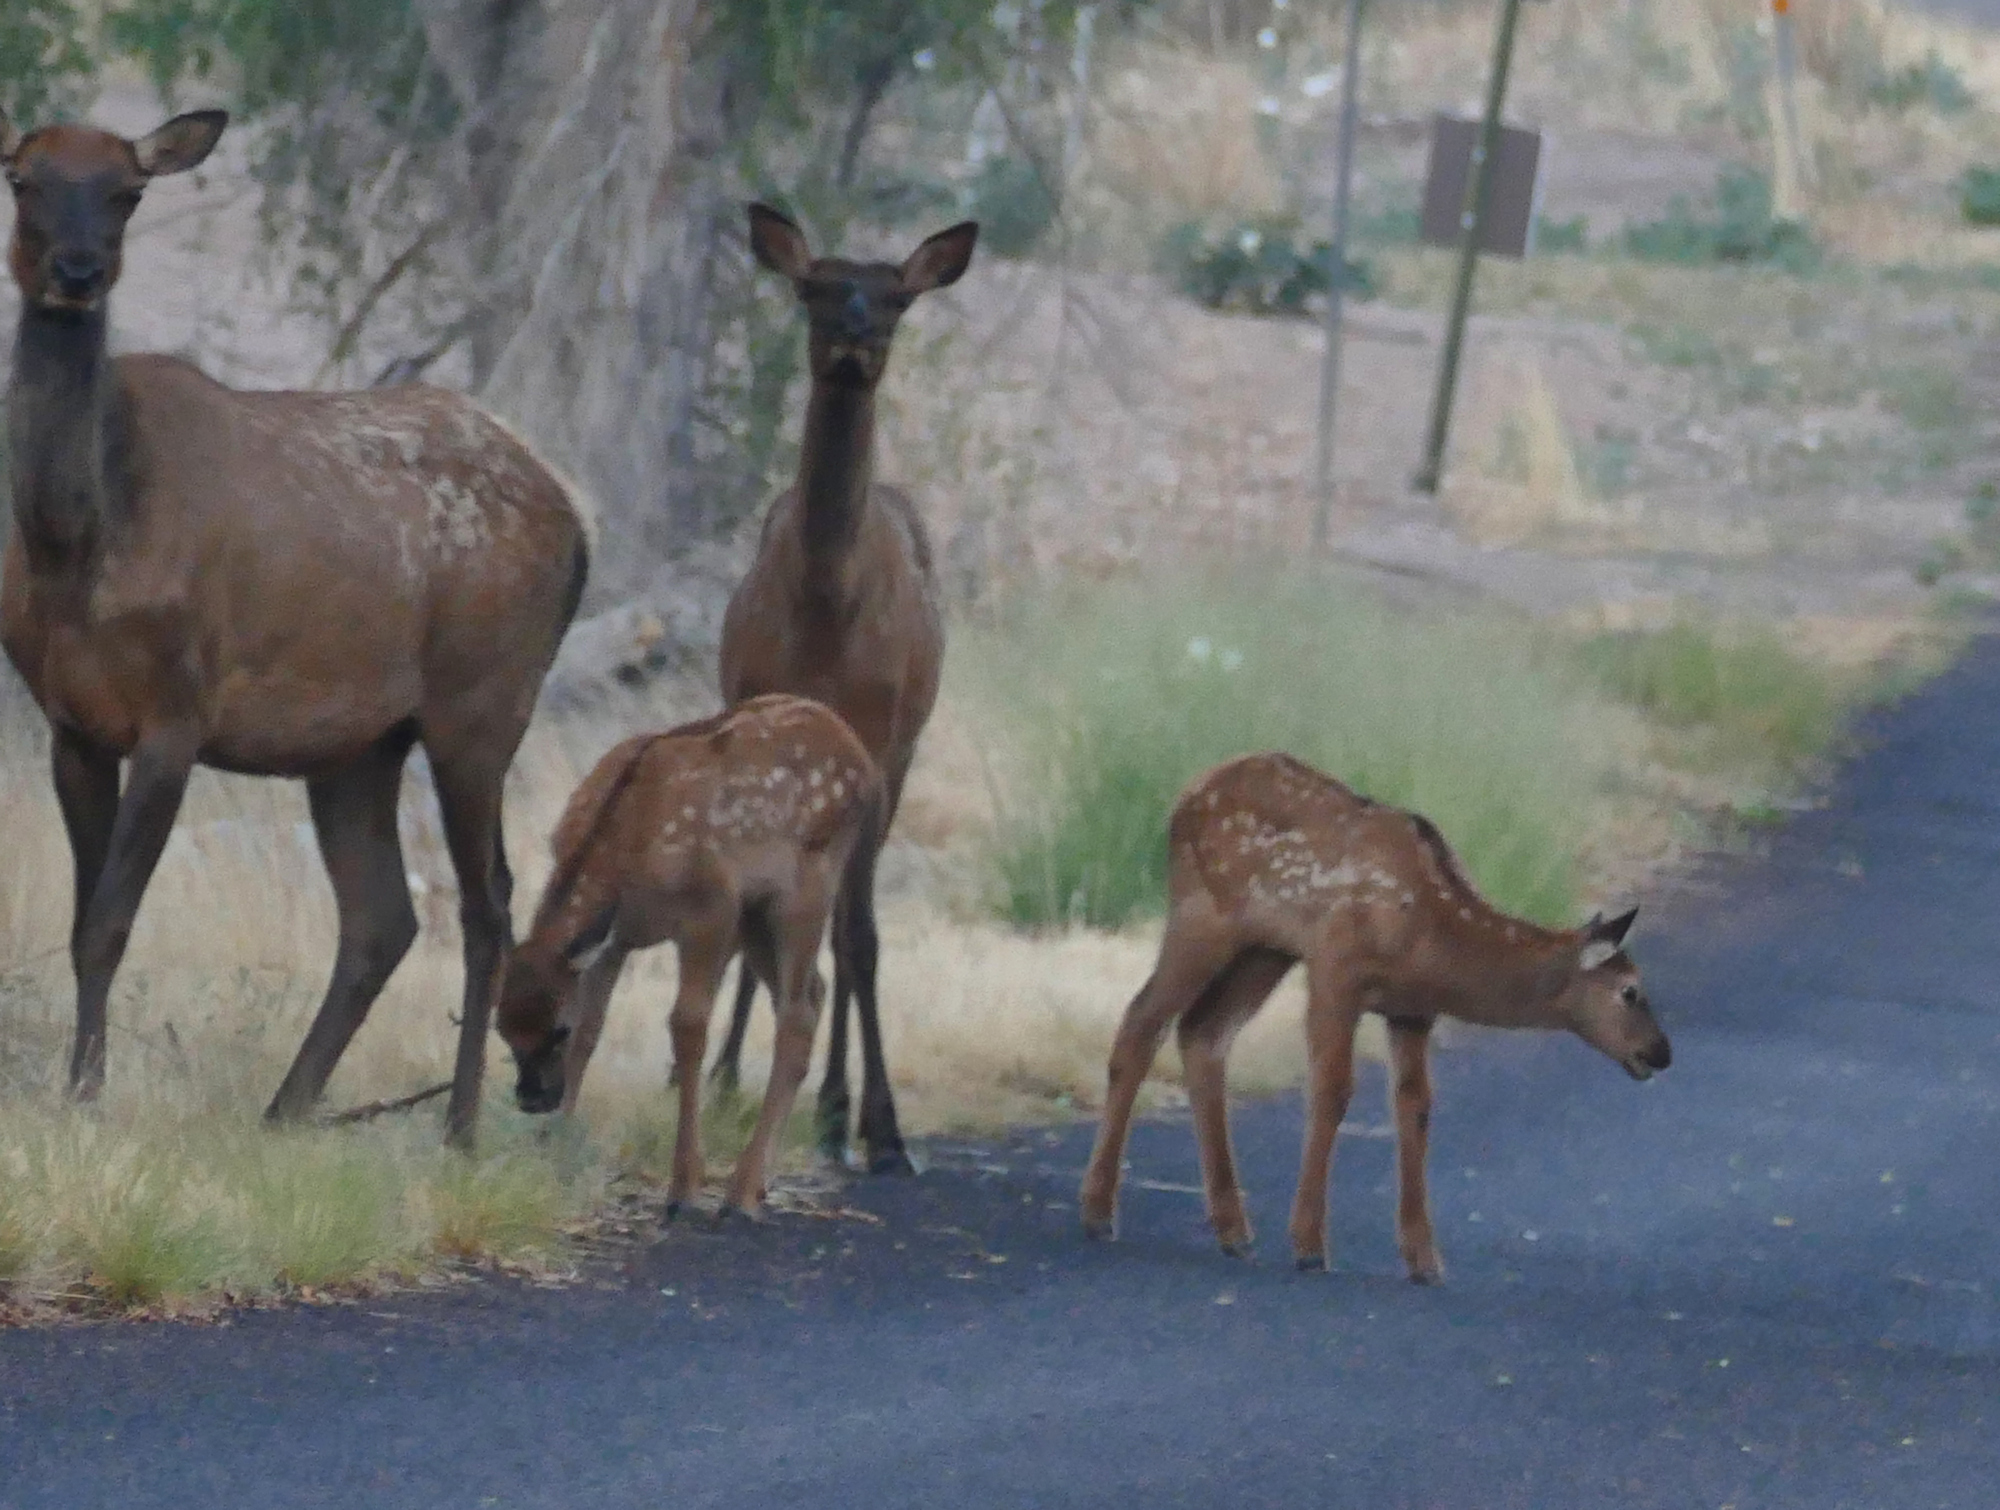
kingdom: Animalia
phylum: Chordata
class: Mammalia
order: Artiodactyla
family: Cervidae
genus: Cervus
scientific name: Cervus elaphus
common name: Red deer
